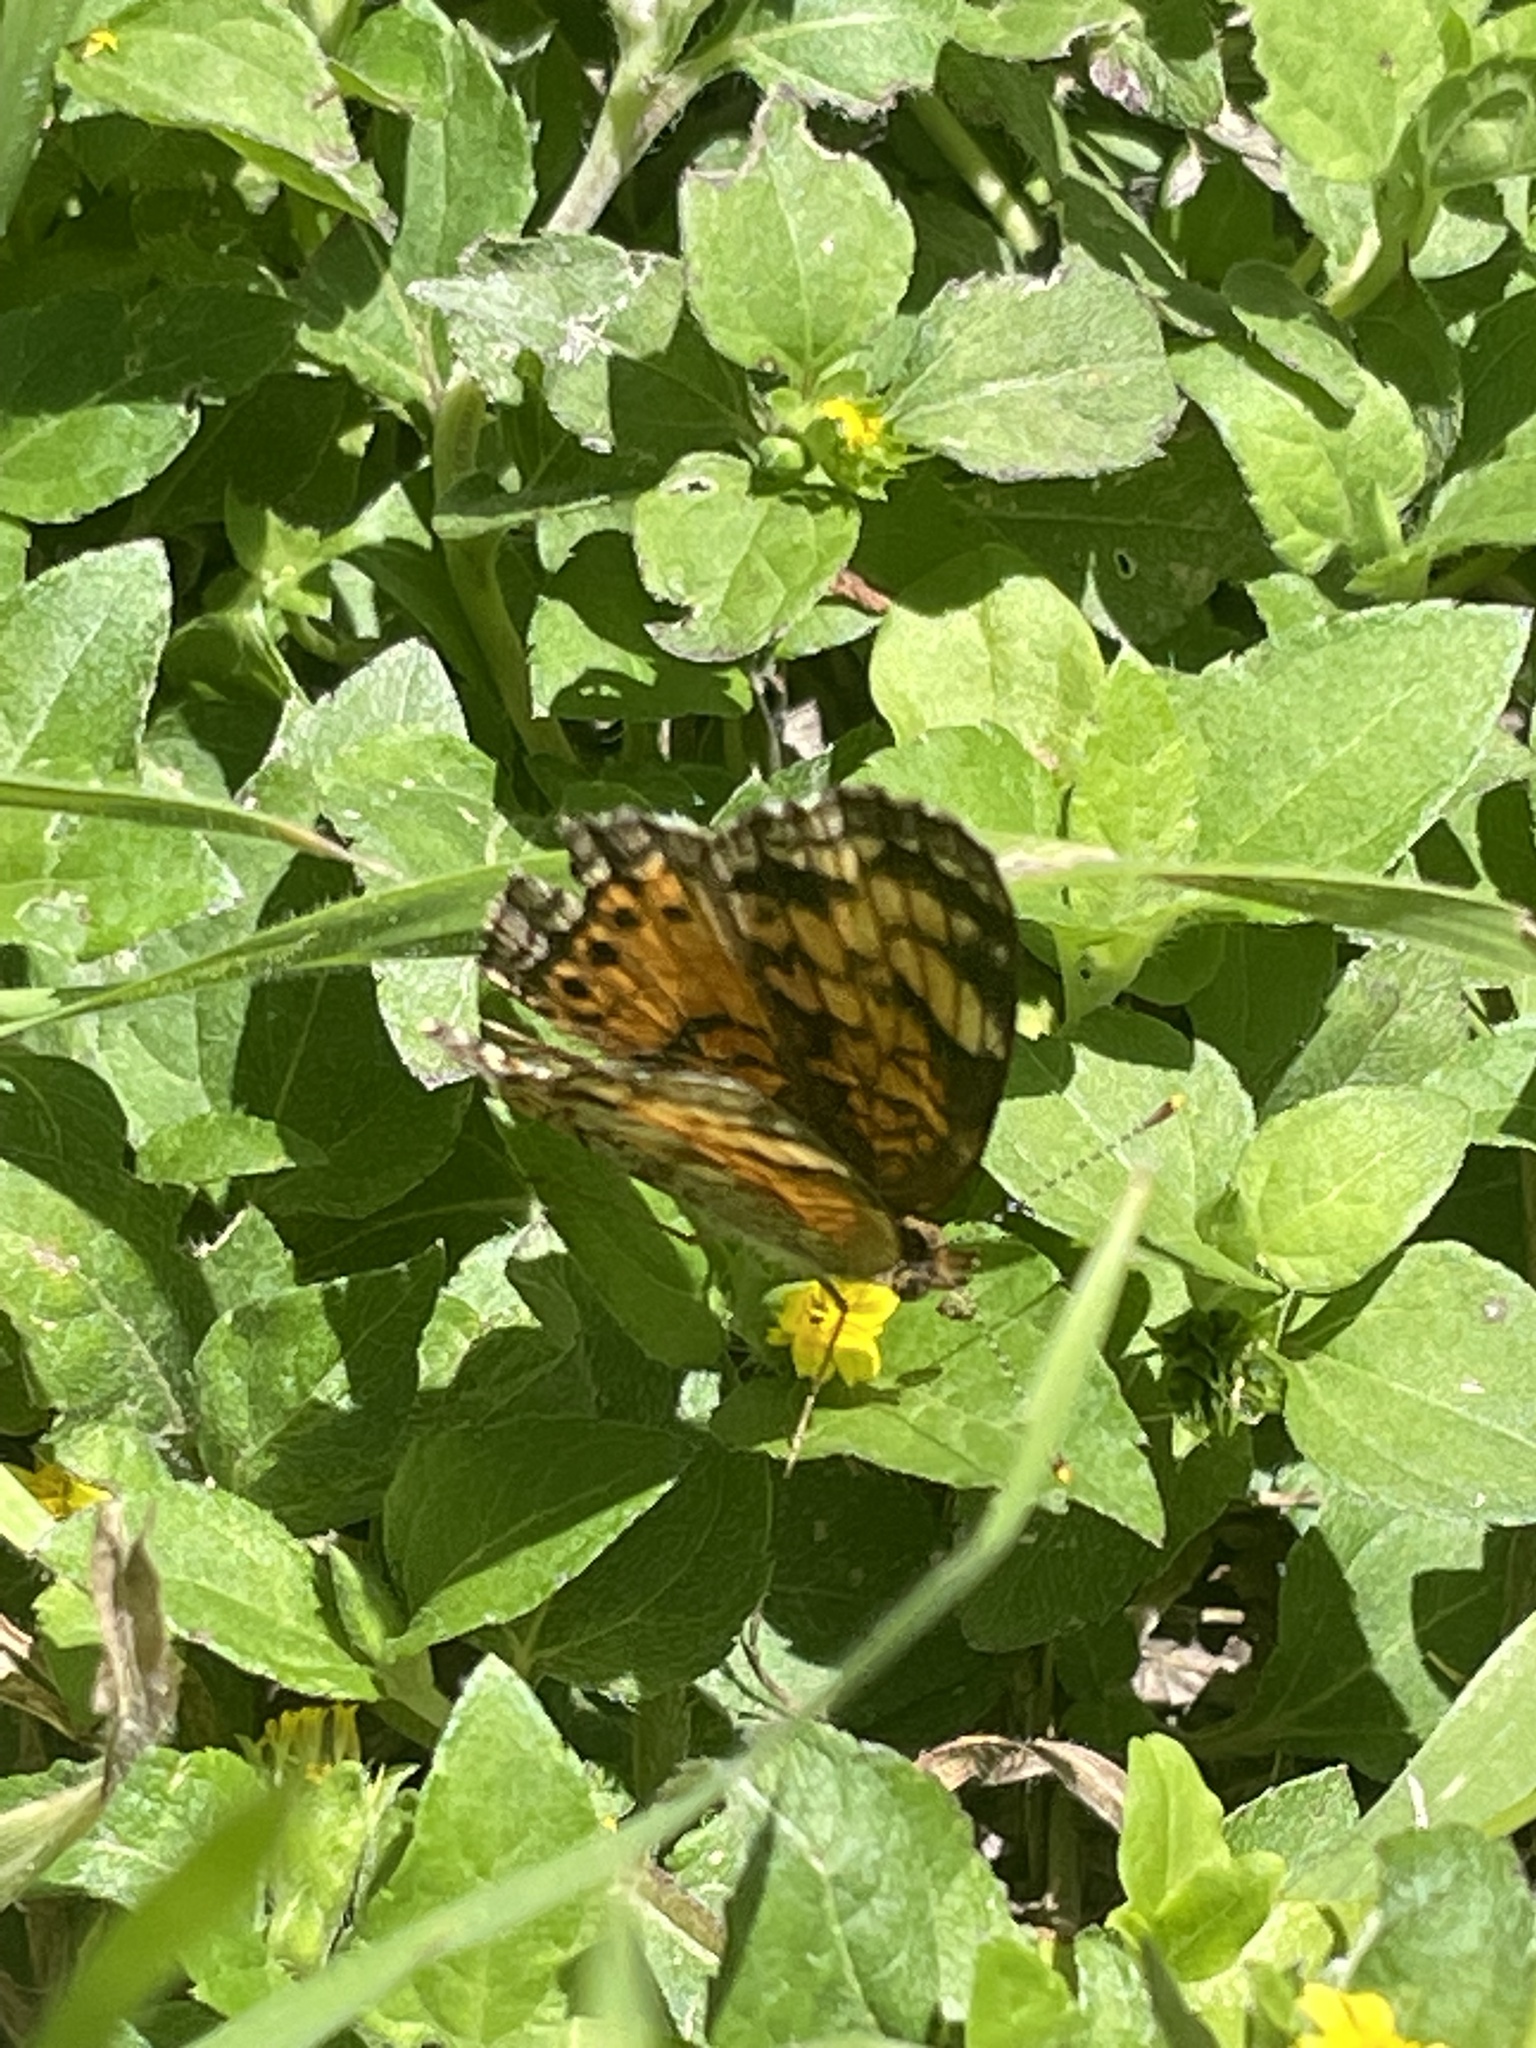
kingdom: Animalia
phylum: Arthropoda
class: Insecta
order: Lepidoptera
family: Nymphalidae
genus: Phyciodes
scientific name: Phyciodes tharos
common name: Pearl crescent
